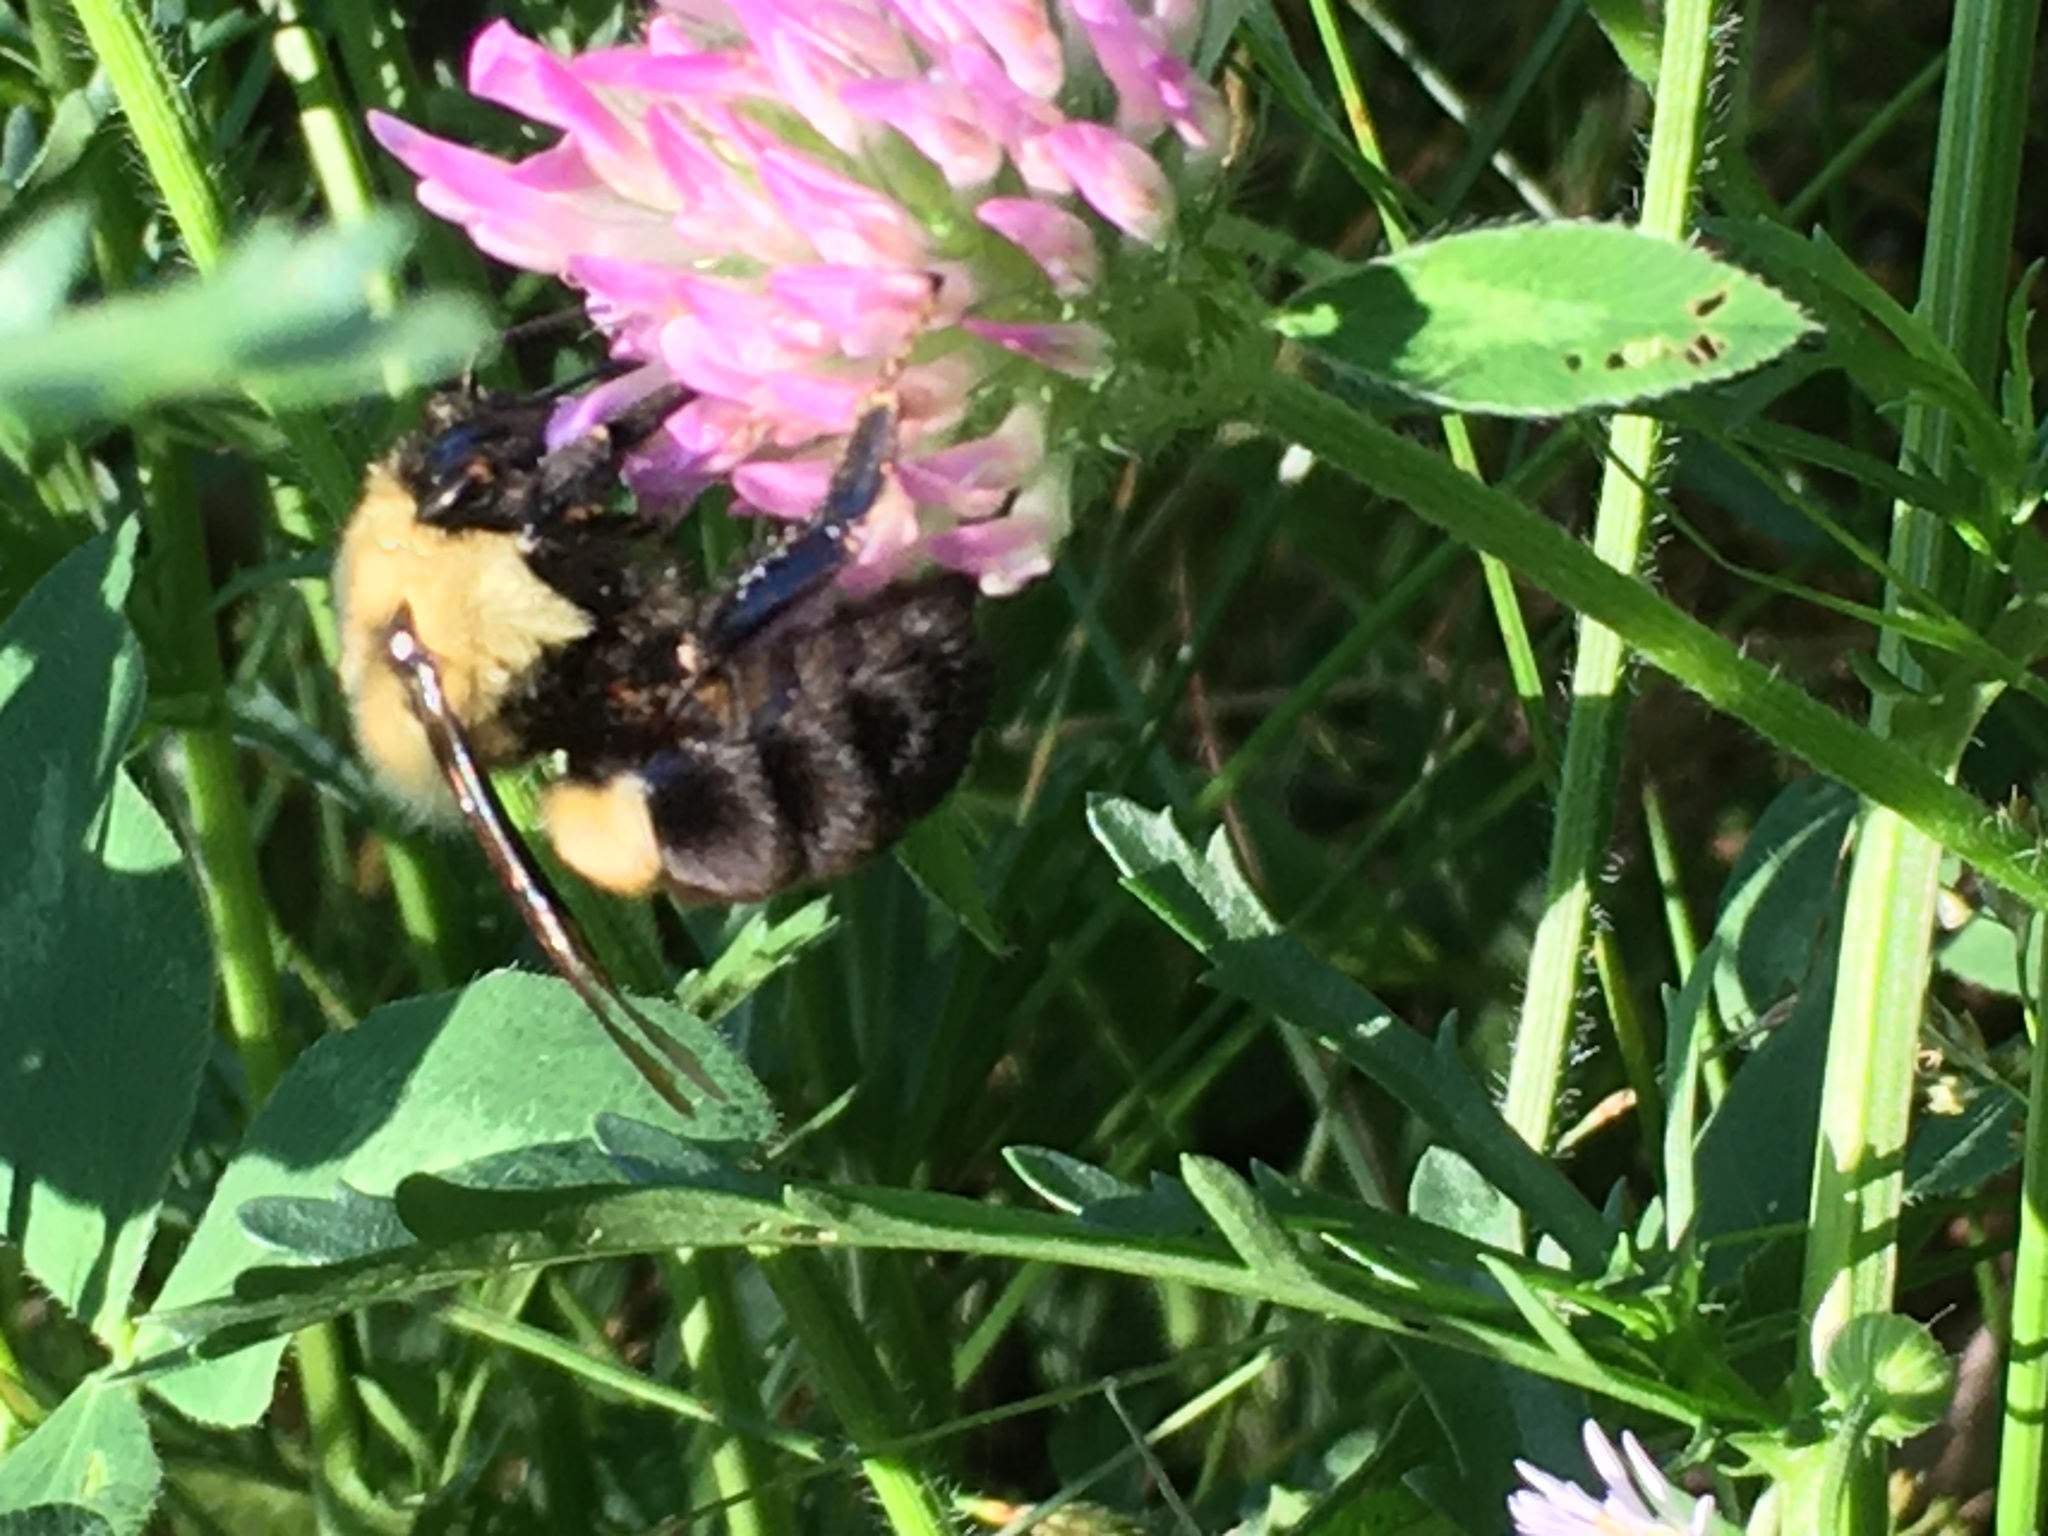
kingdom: Animalia
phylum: Arthropoda
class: Insecta
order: Hymenoptera
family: Apidae
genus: Bombus
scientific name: Bombus impatiens
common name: Common eastern bumble bee
